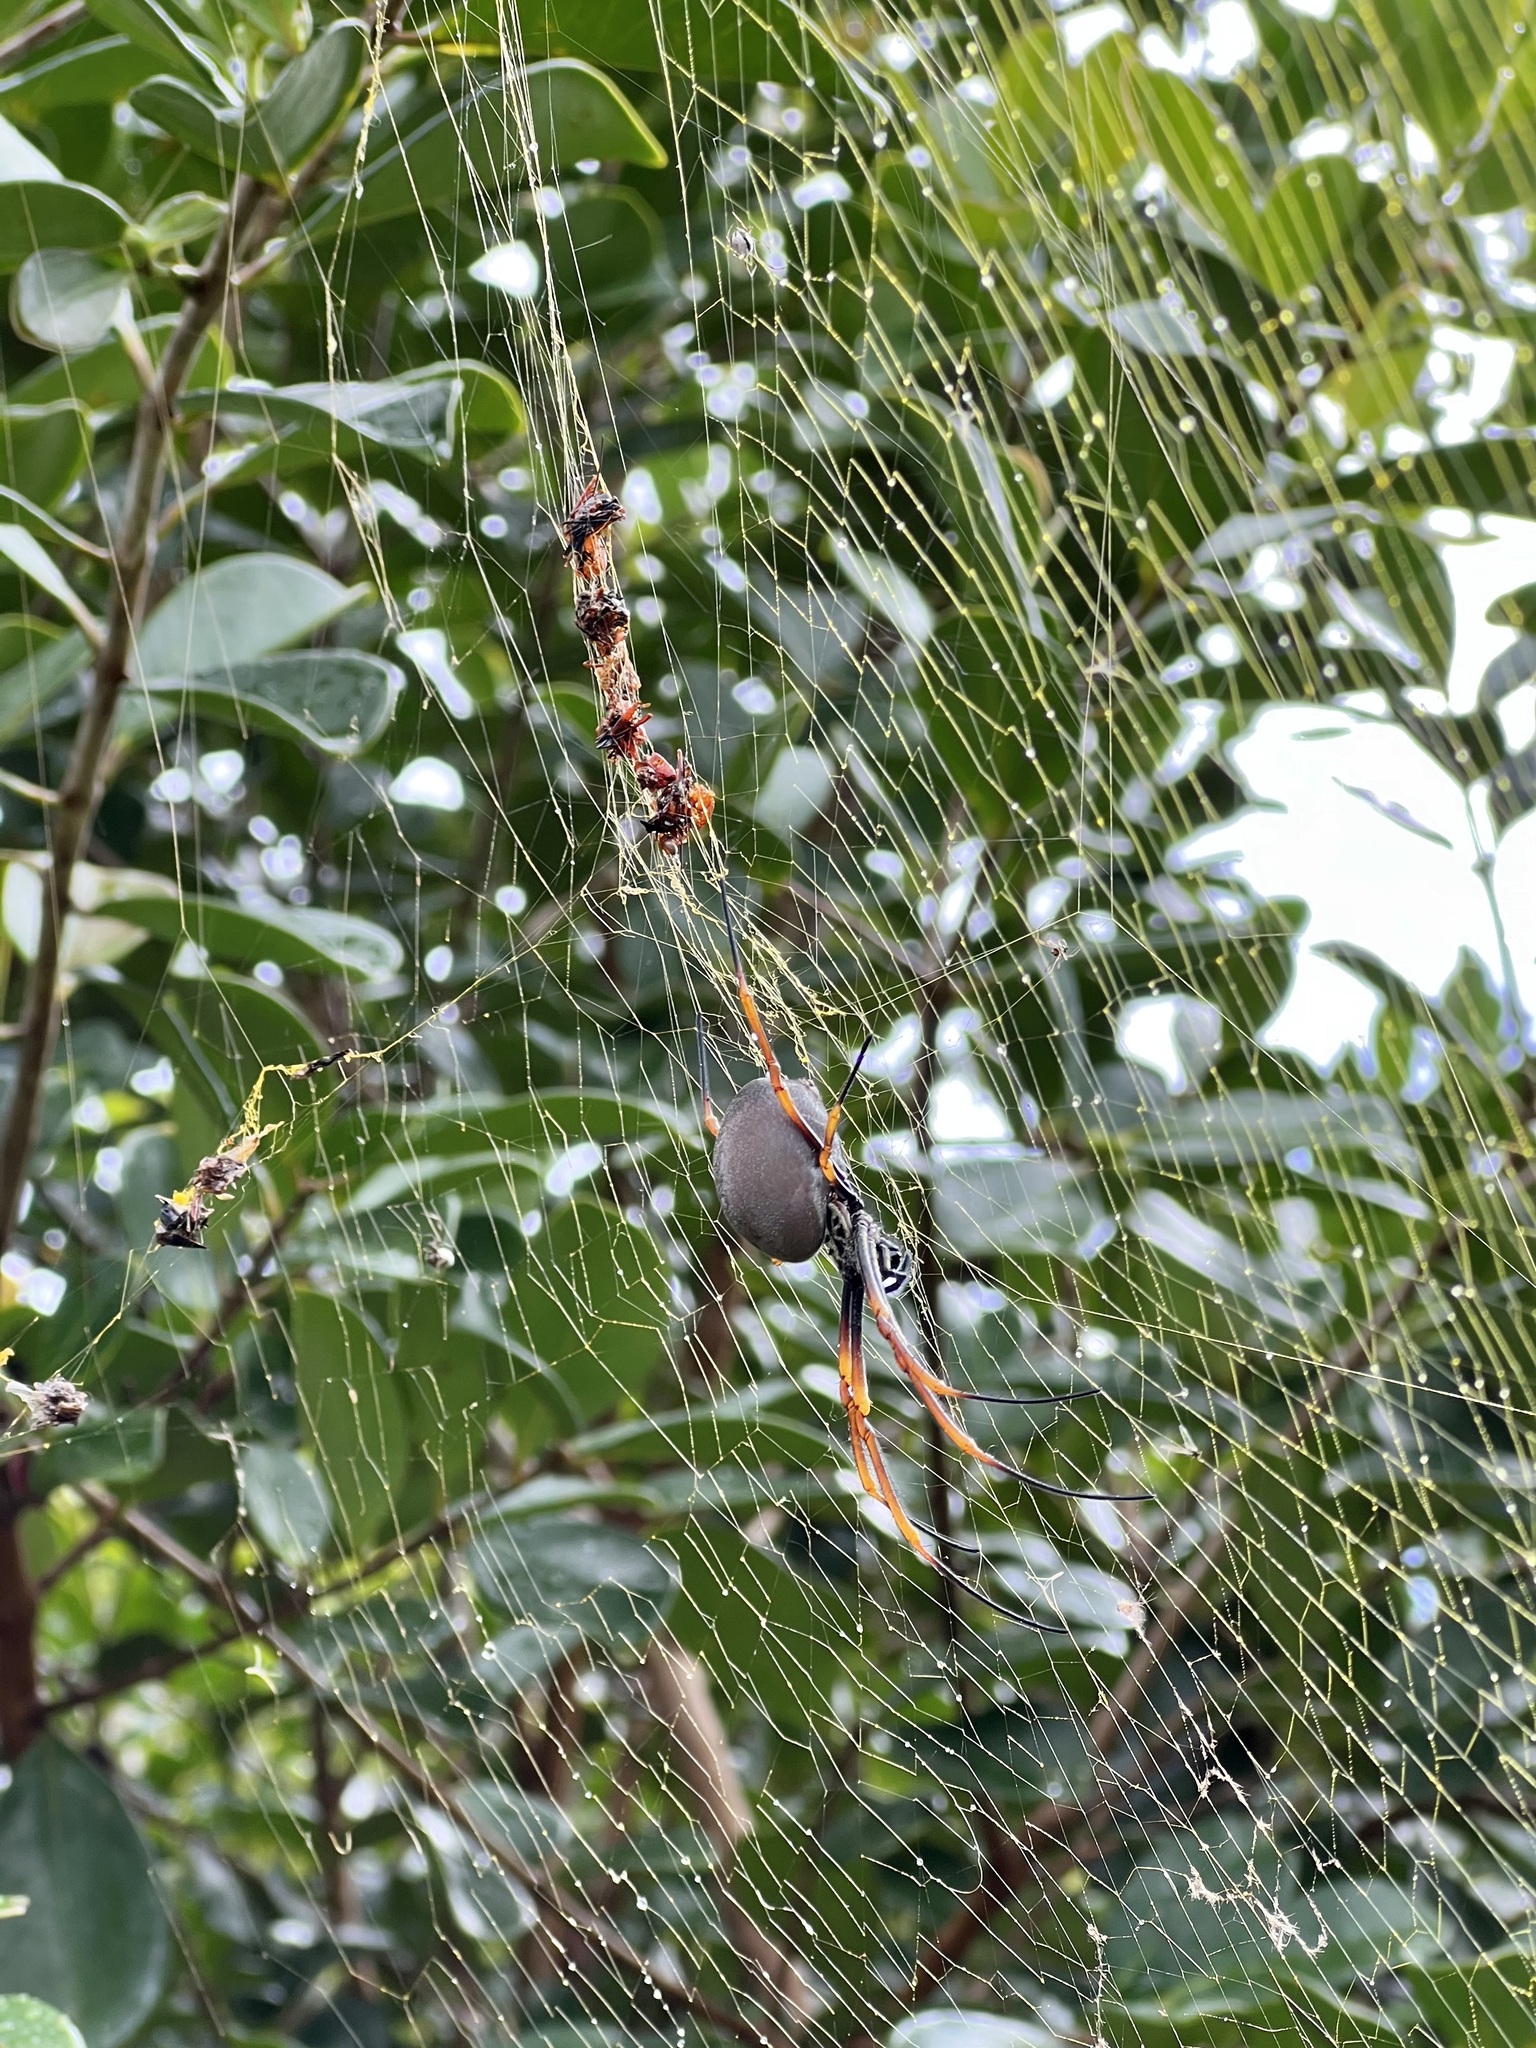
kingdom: Animalia
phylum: Arthropoda
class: Arachnida
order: Araneae
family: Araneidae
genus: Trichonephila
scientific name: Trichonephila plumipes
